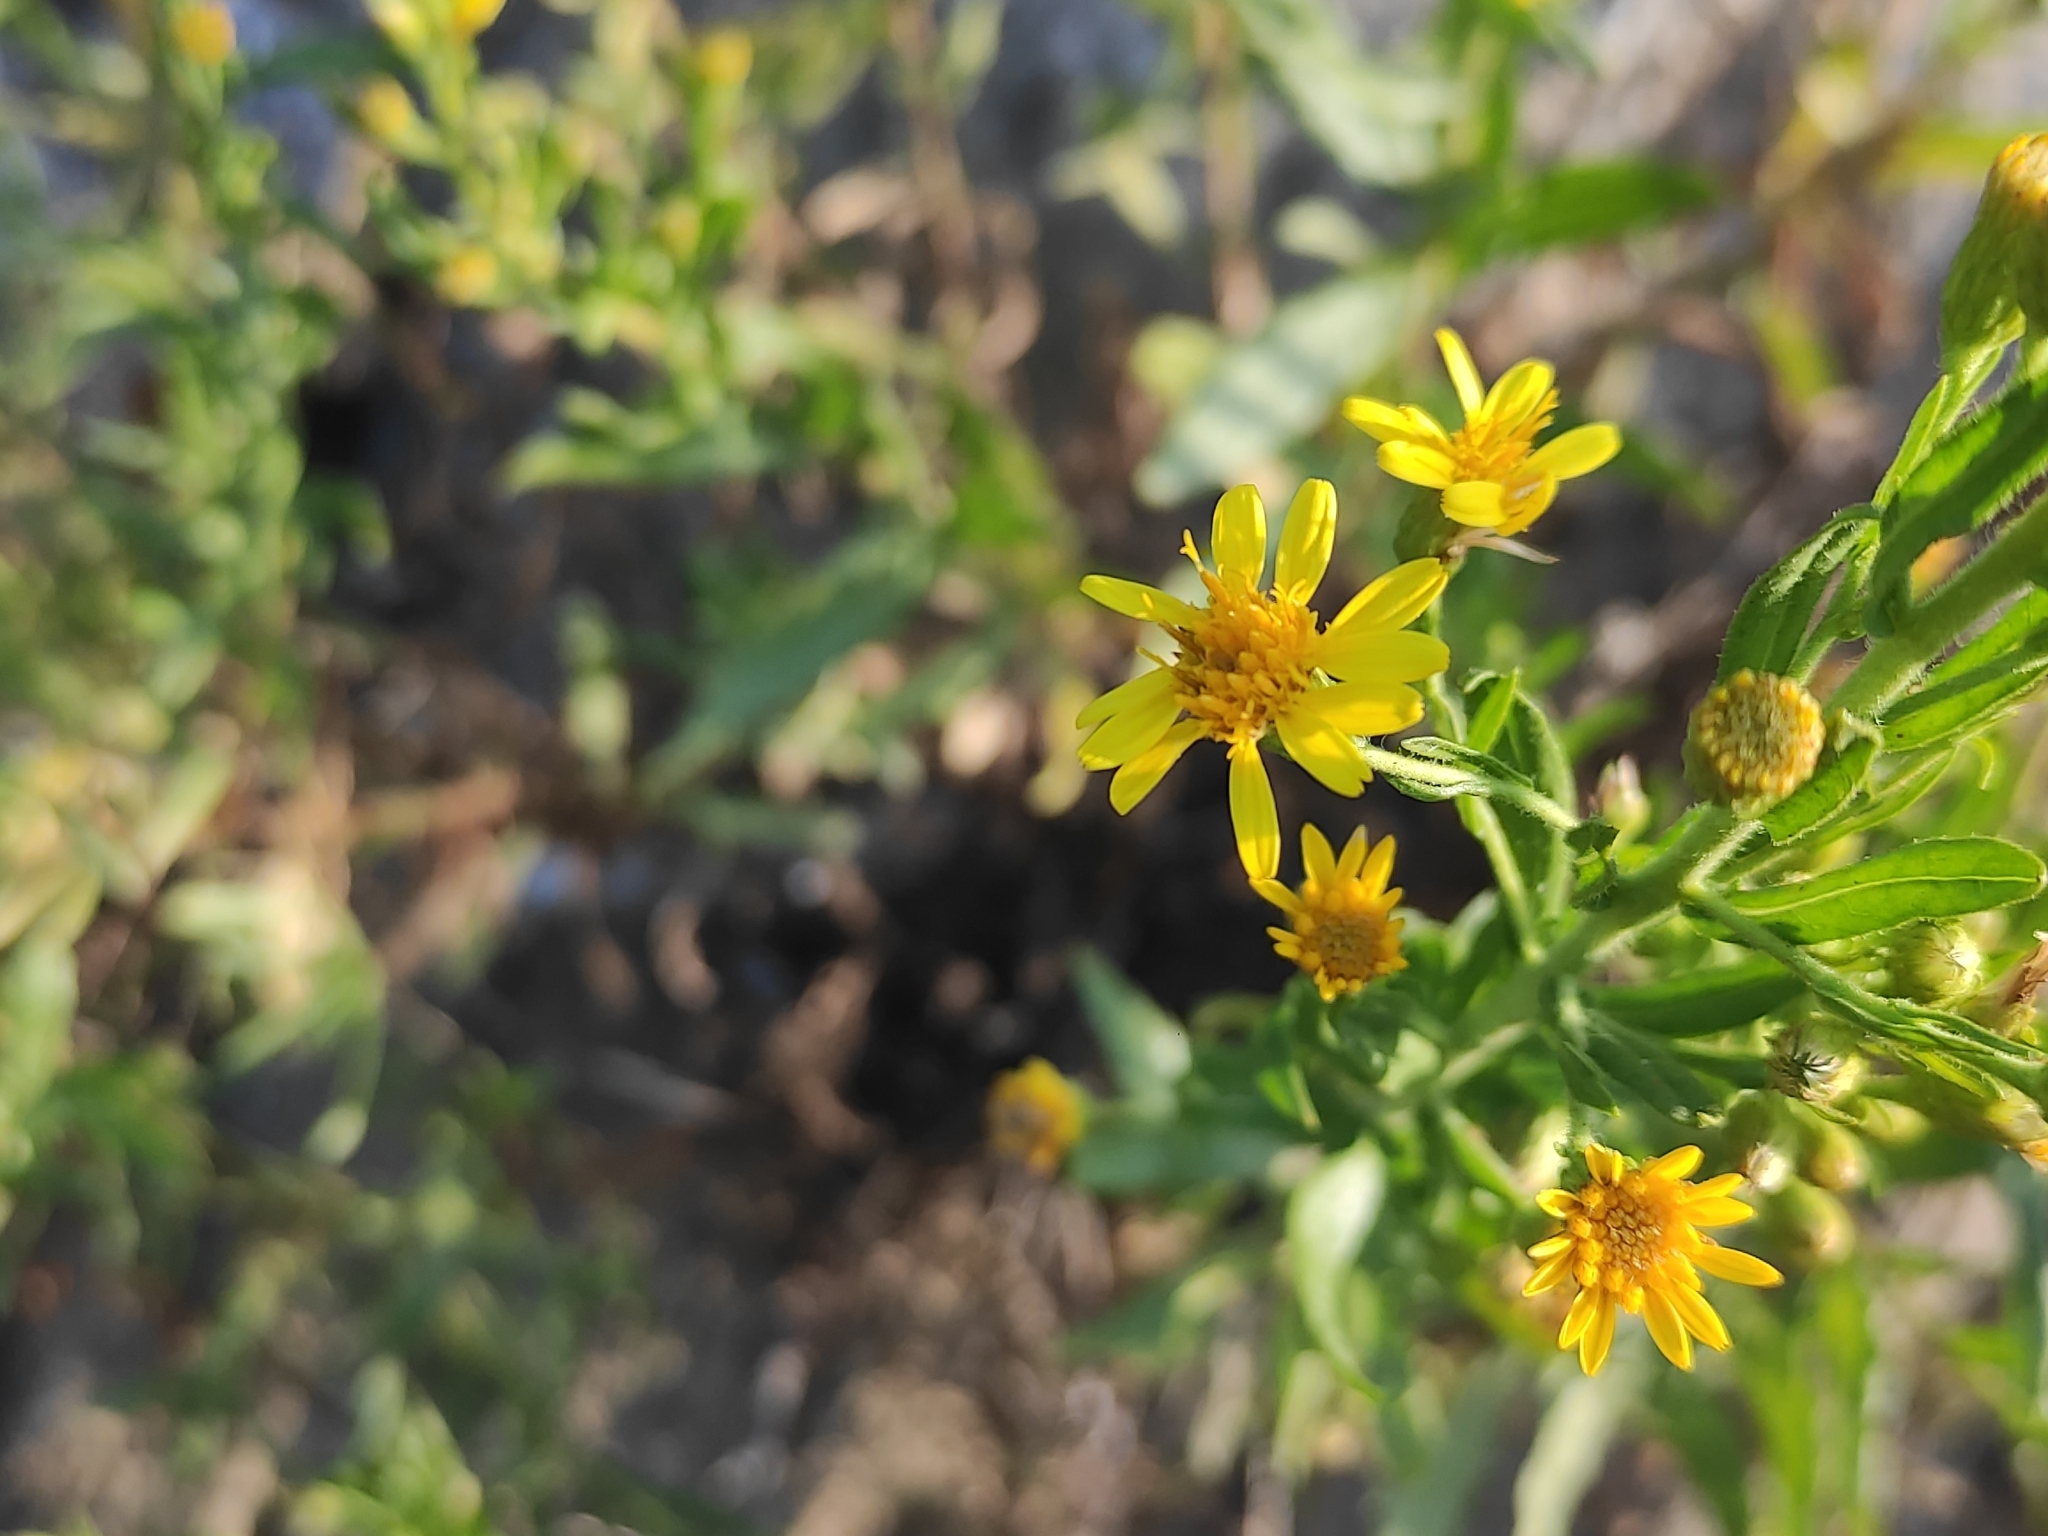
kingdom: Plantae
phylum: Tracheophyta
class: Magnoliopsida
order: Asterales
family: Asteraceae
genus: Dittrichia
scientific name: Dittrichia viscosa
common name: Woody fleabane
